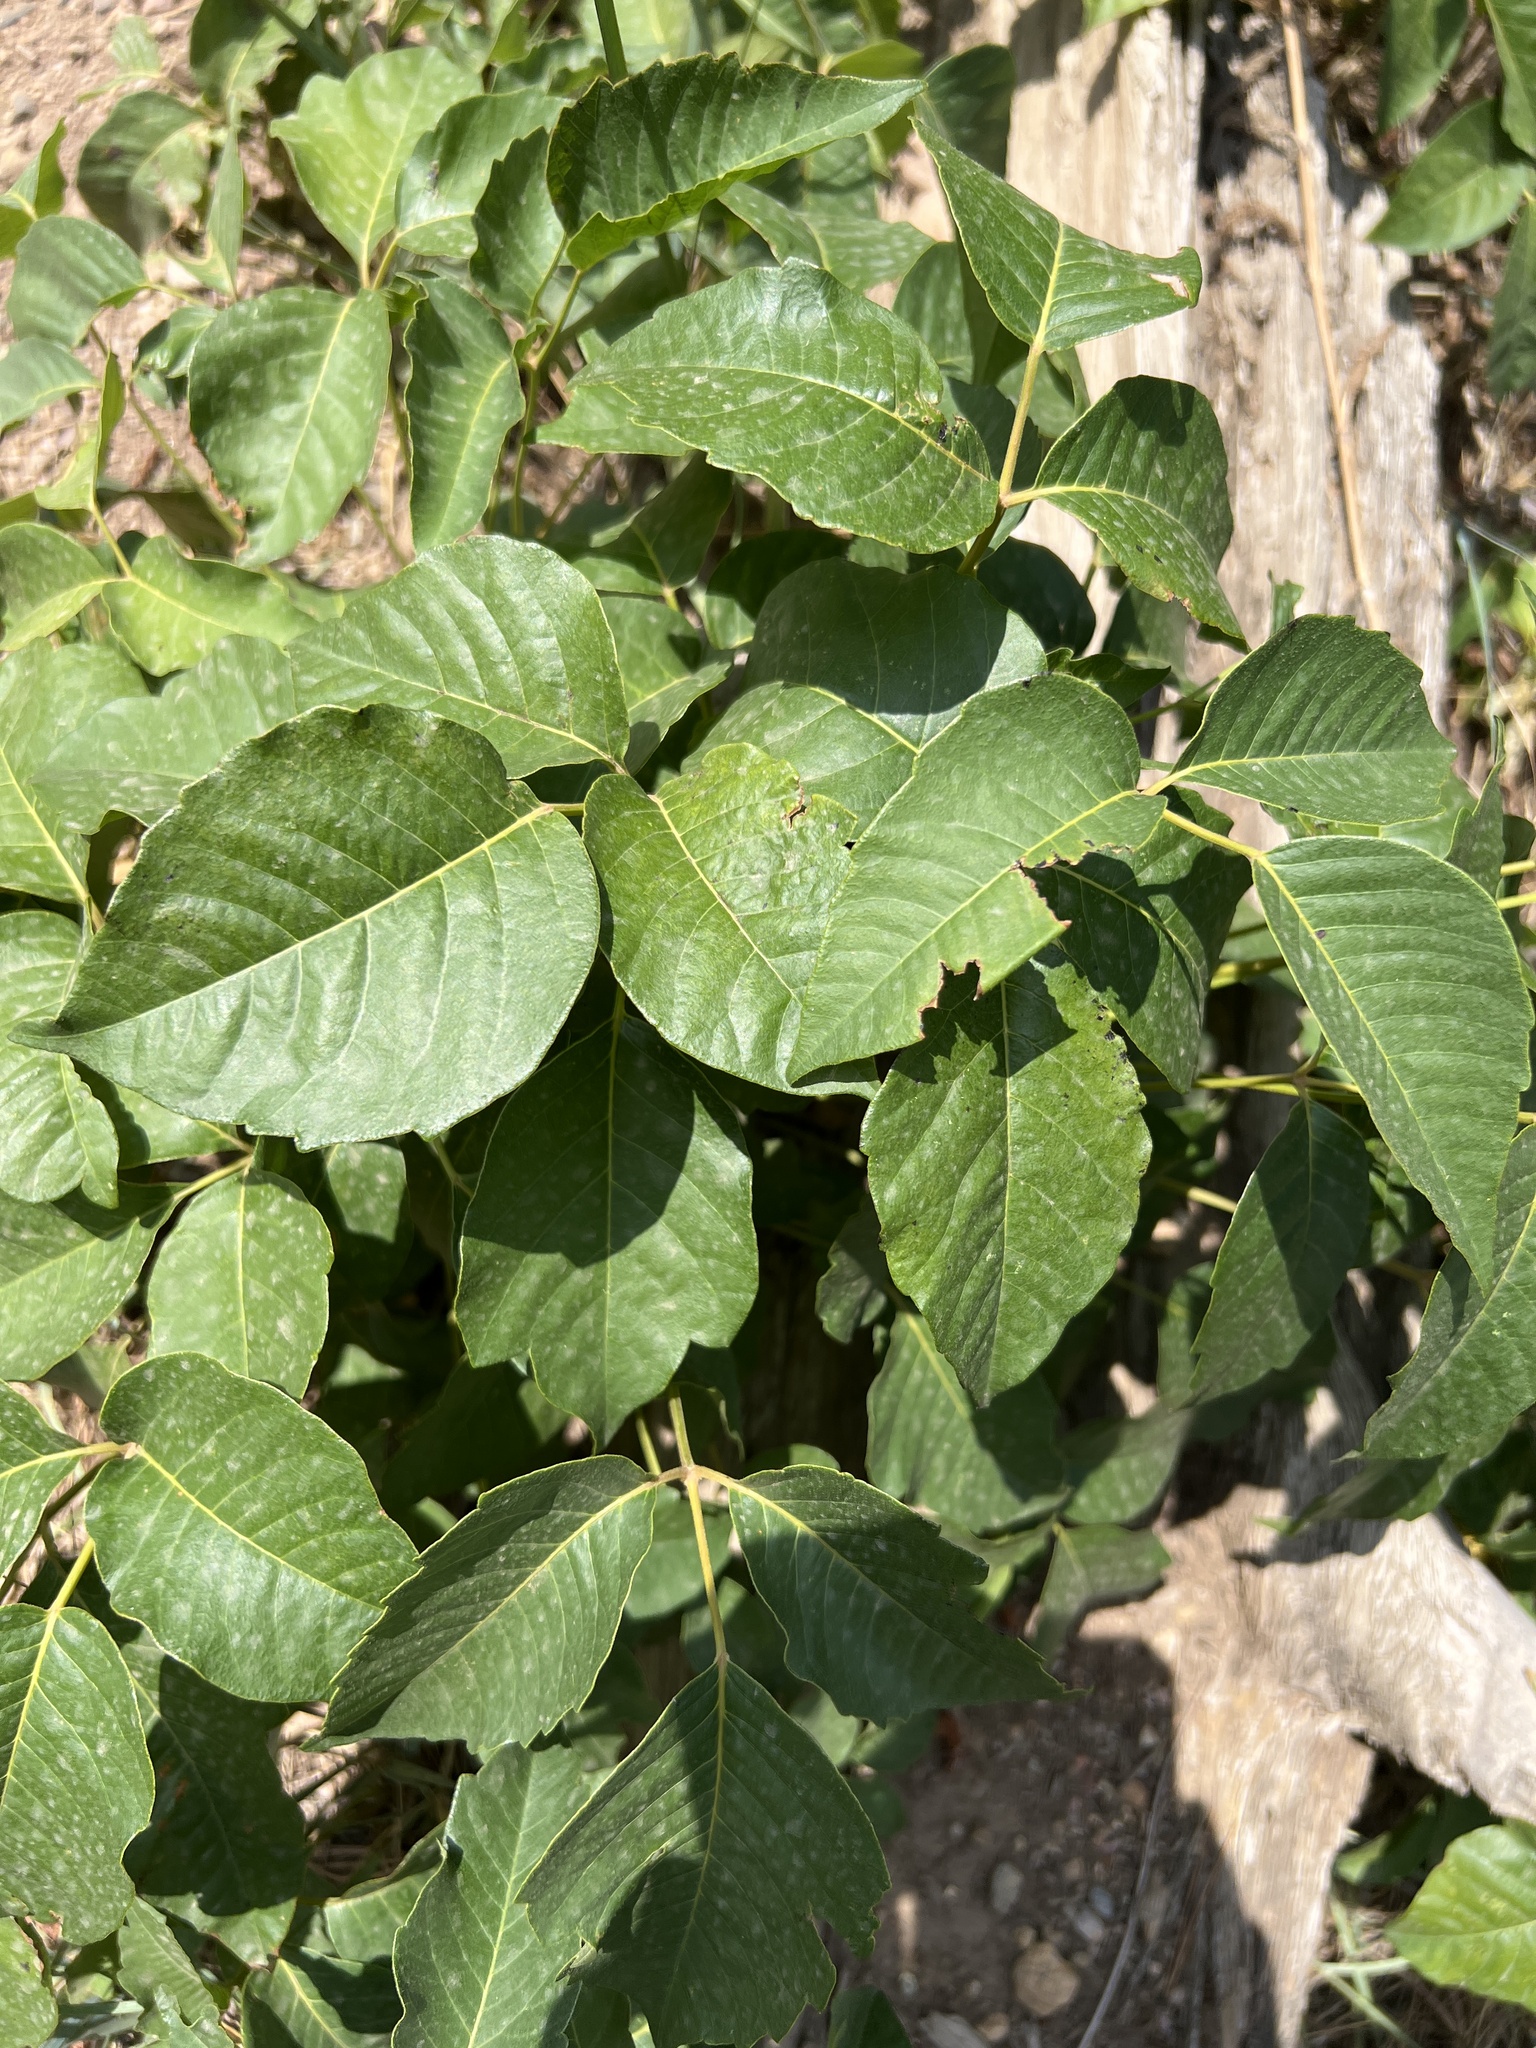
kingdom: Plantae
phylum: Tracheophyta
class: Magnoliopsida
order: Sapindales
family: Anacardiaceae
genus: Toxicodendron
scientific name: Toxicodendron rydbergii
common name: Rydberg's poison-ivy
